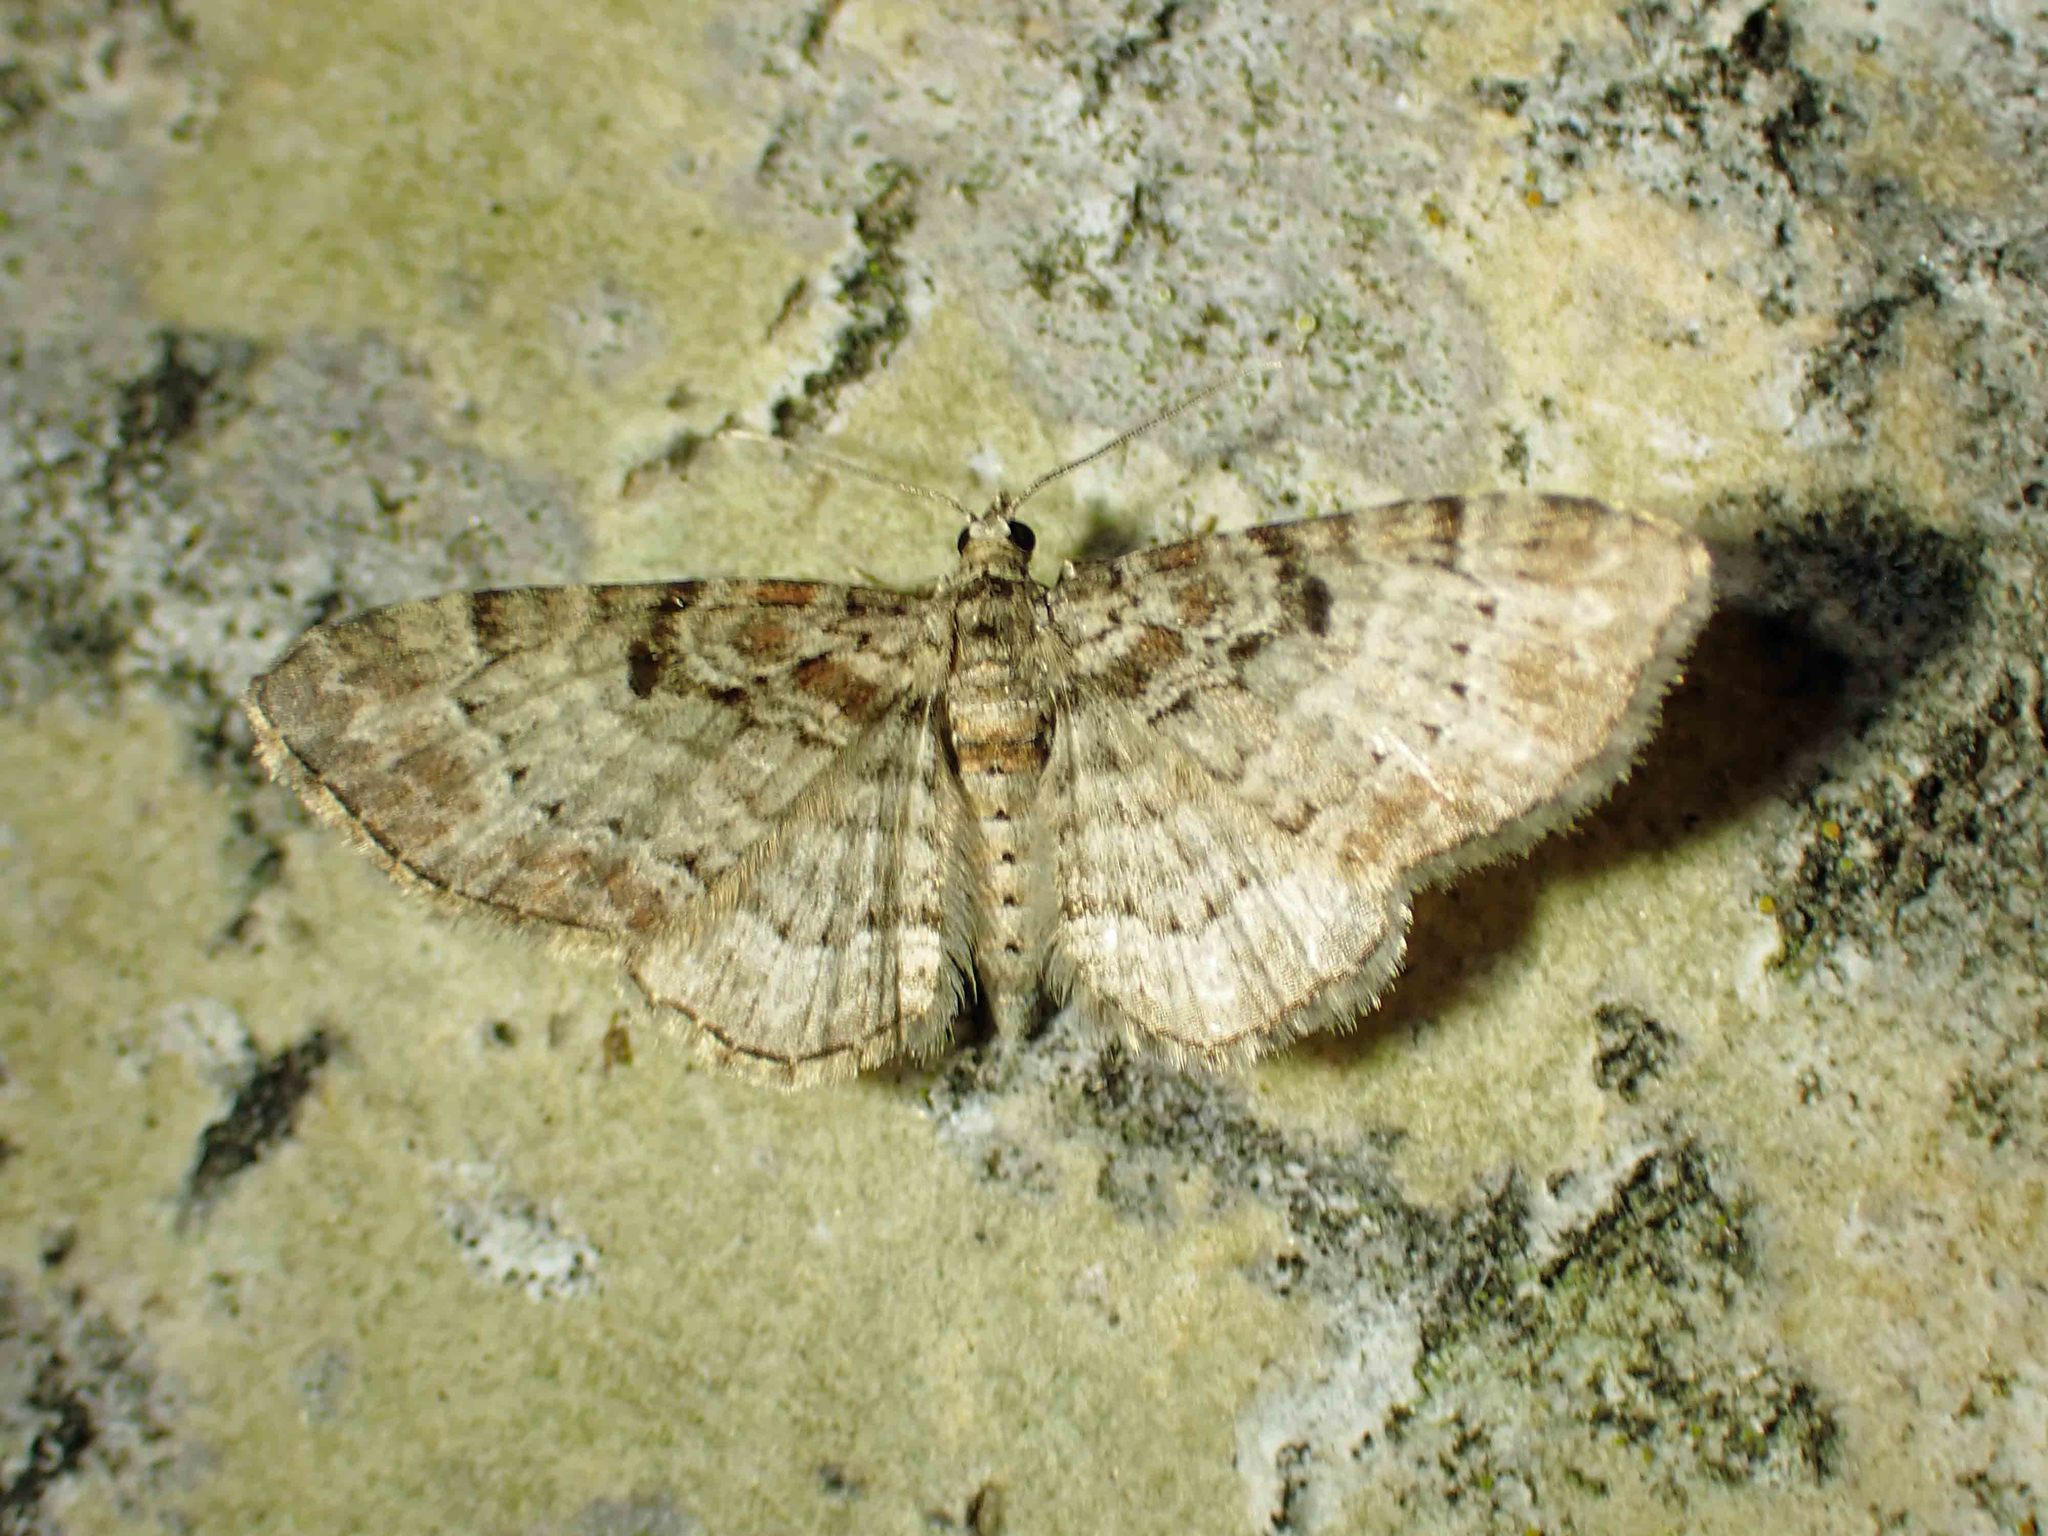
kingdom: Animalia
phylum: Arthropoda
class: Insecta
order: Lepidoptera
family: Geometridae
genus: Eupithecia
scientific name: Eupithecia mutata
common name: Cloaked pug
